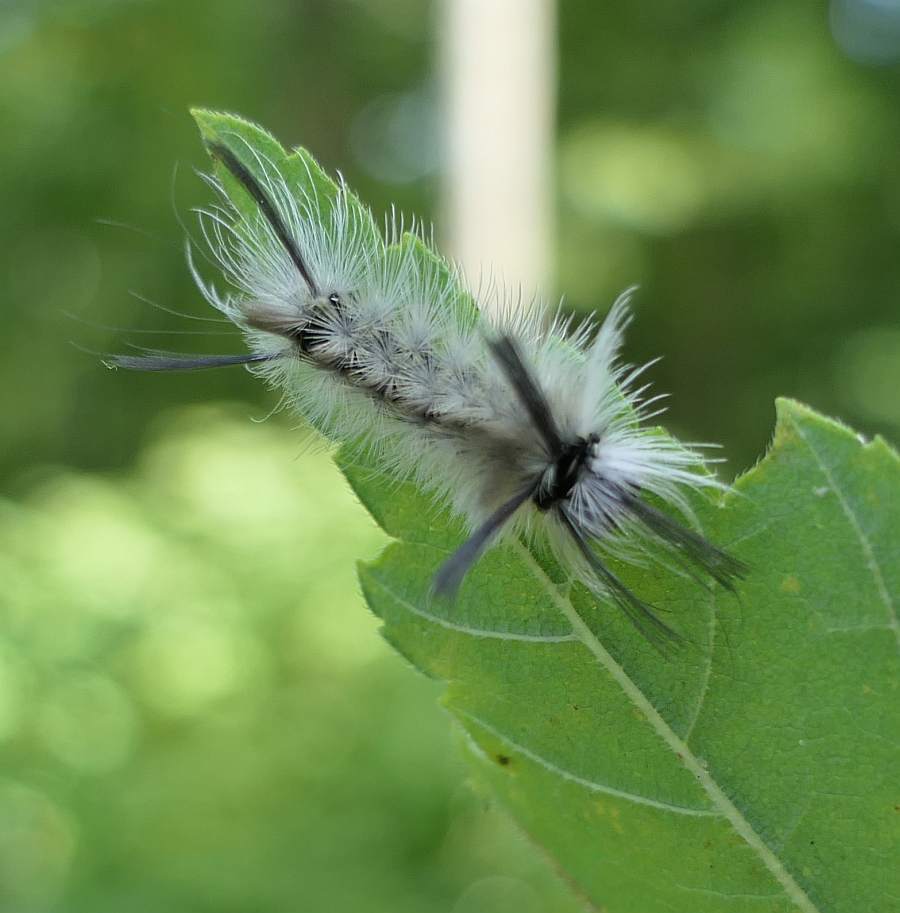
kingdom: Animalia
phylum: Arthropoda
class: Insecta
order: Lepidoptera
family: Erebidae
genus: Halysidota
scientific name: Halysidota tessellaris
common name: Banded tussock moth
